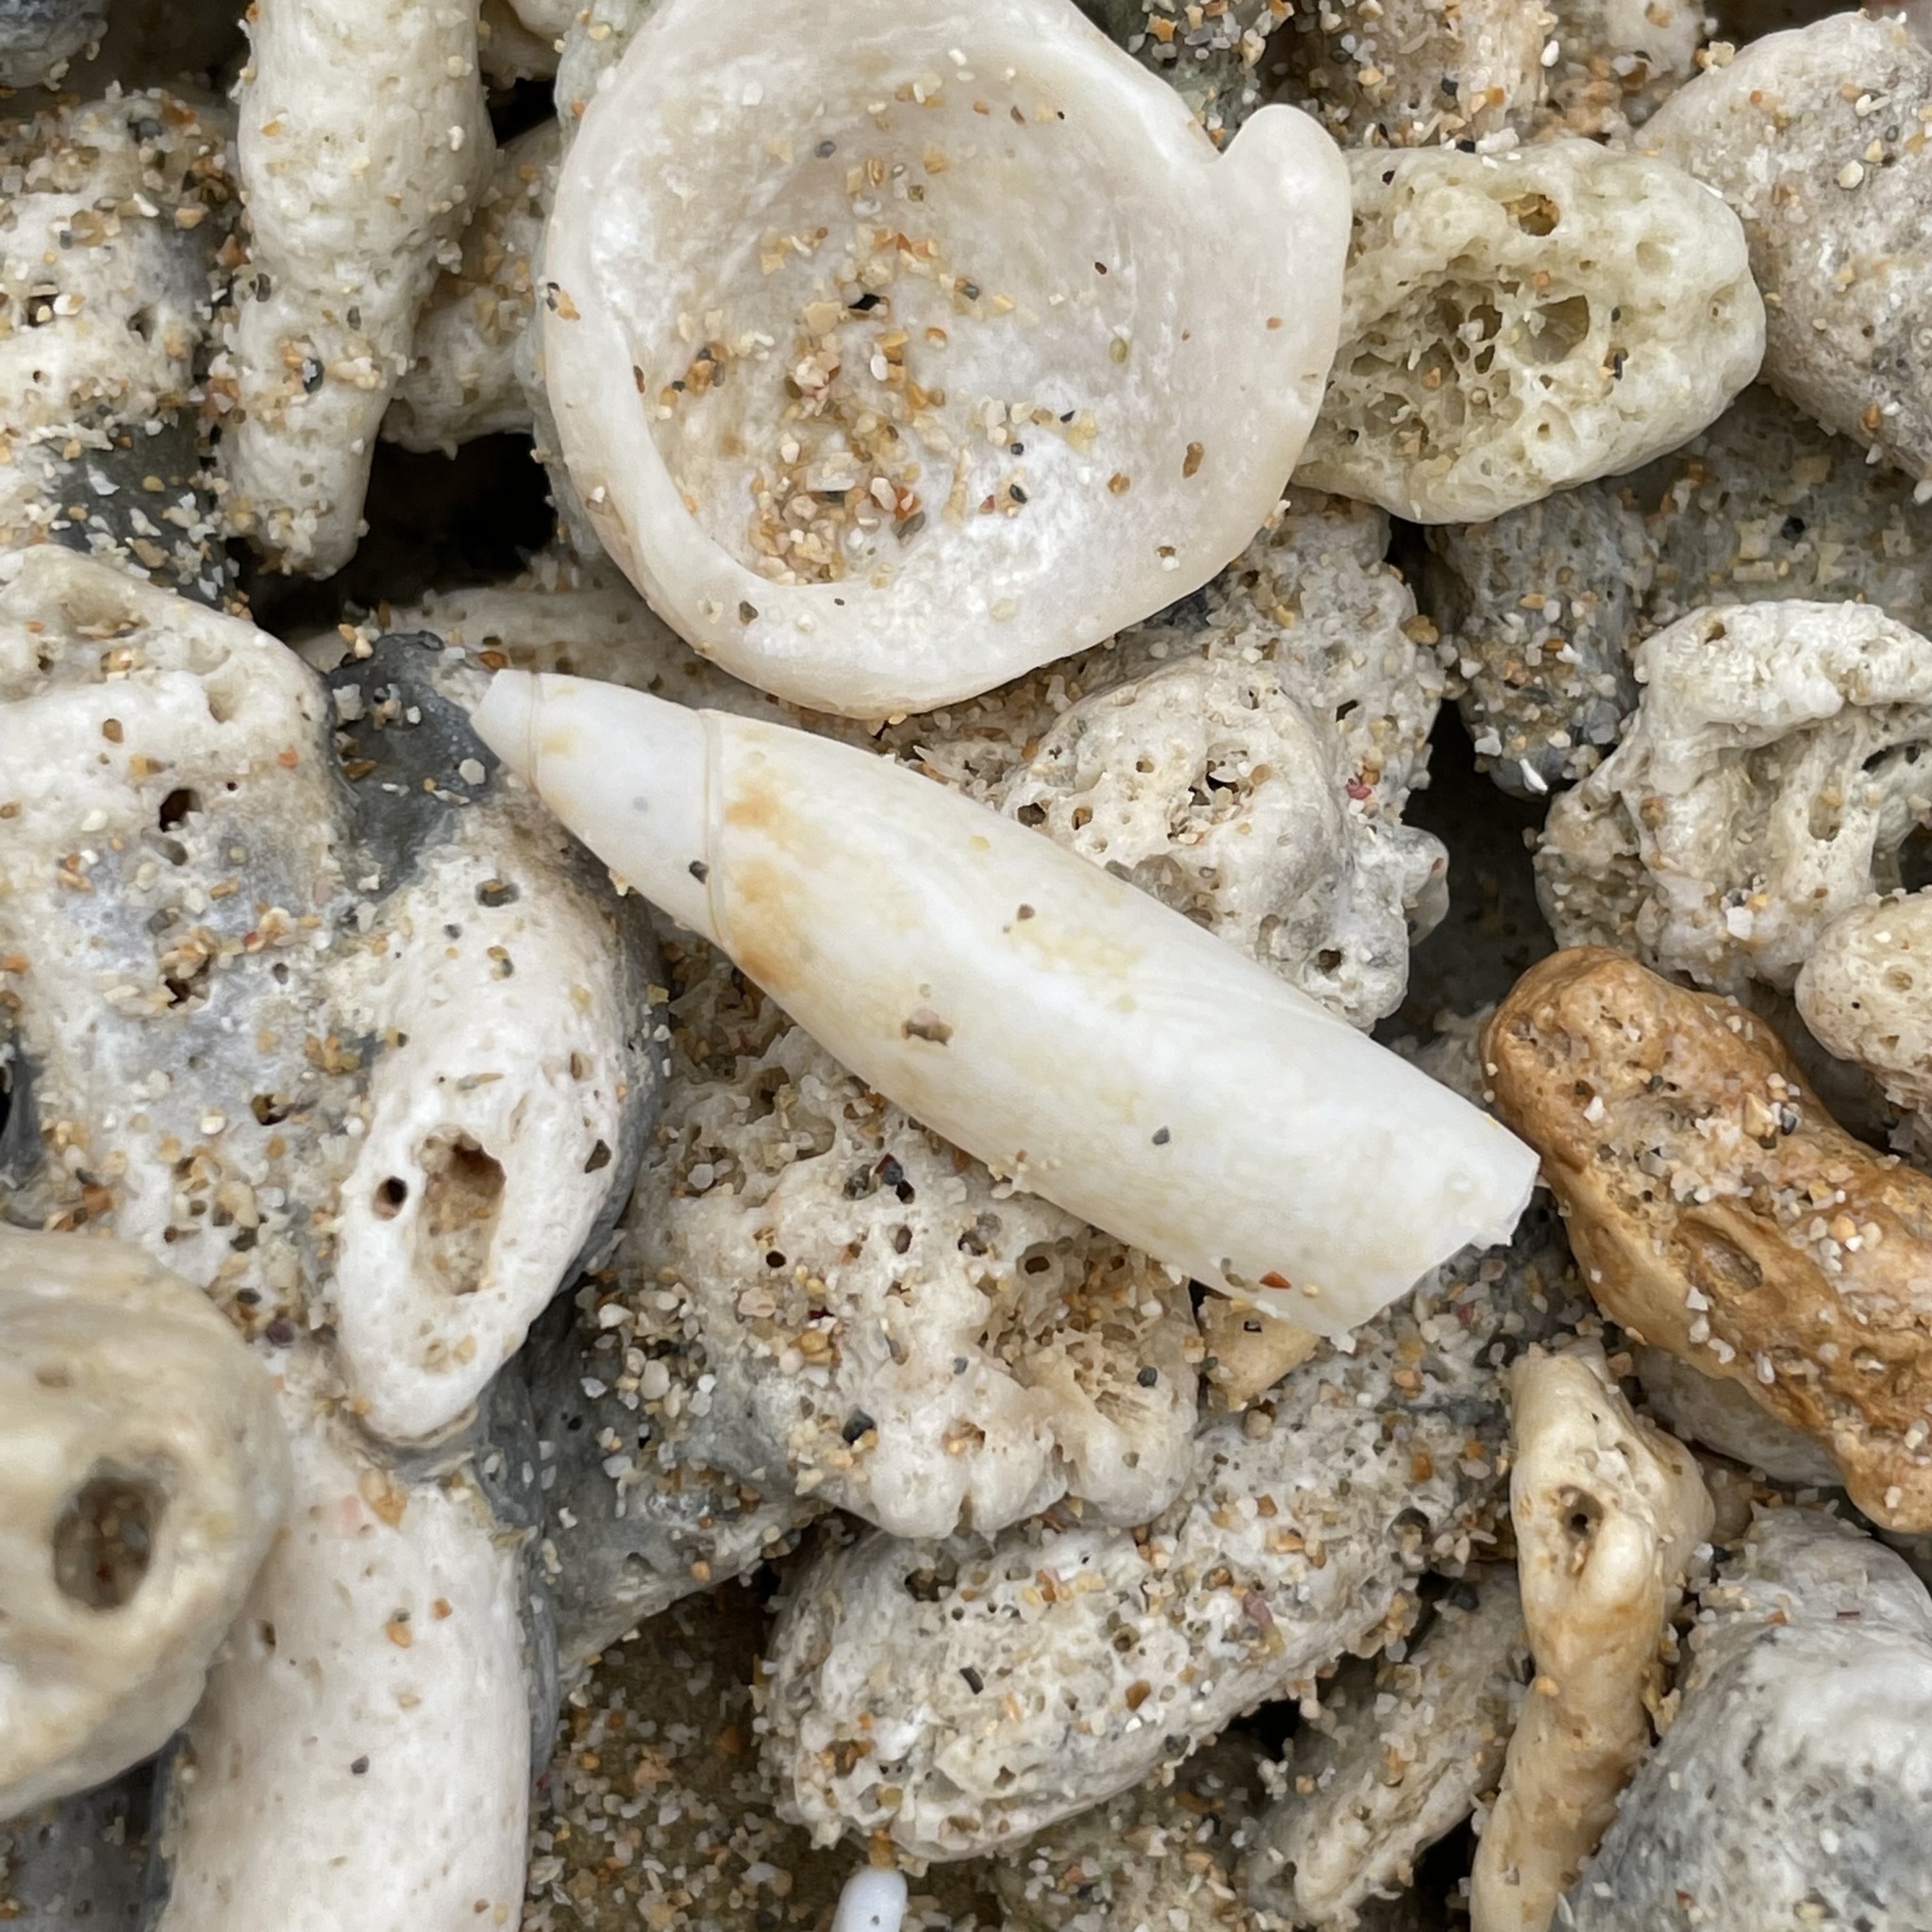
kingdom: Animalia
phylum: Mollusca
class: Gastropoda
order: Littorinimorpha
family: Seraphsidae
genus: Terebellum
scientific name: Terebellum terebellum
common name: Little auger
